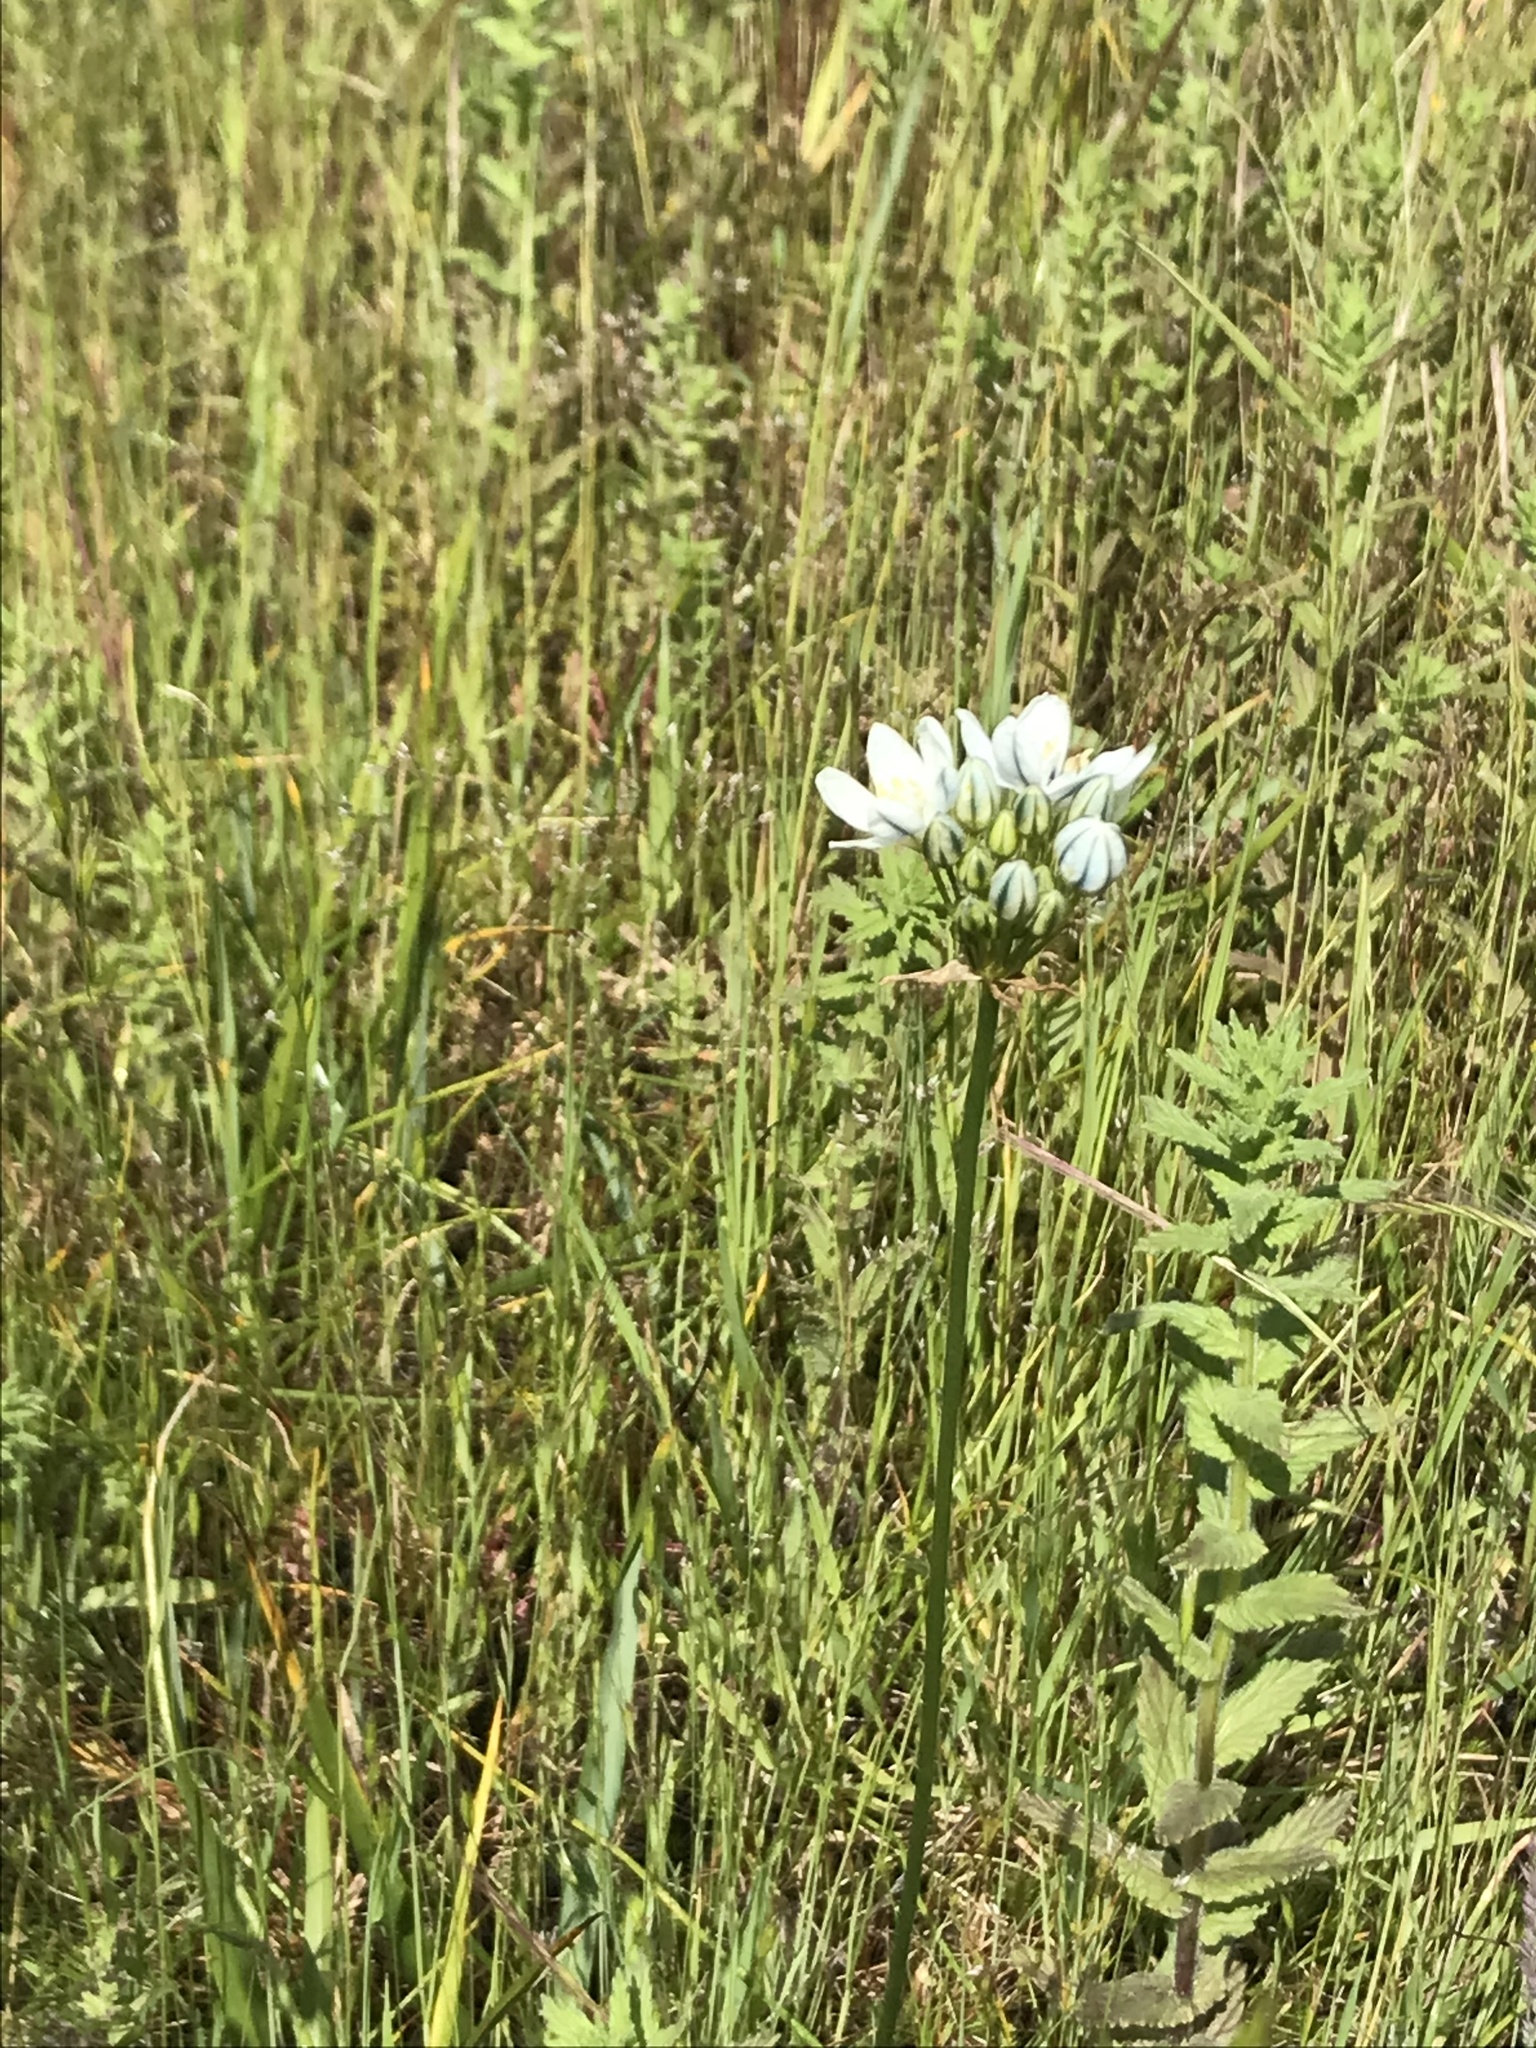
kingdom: Plantae
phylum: Tracheophyta
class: Liliopsida
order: Asparagales
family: Asparagaceae
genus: Triteleia
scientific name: Triteleia hyacinthina
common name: White brodiaea
